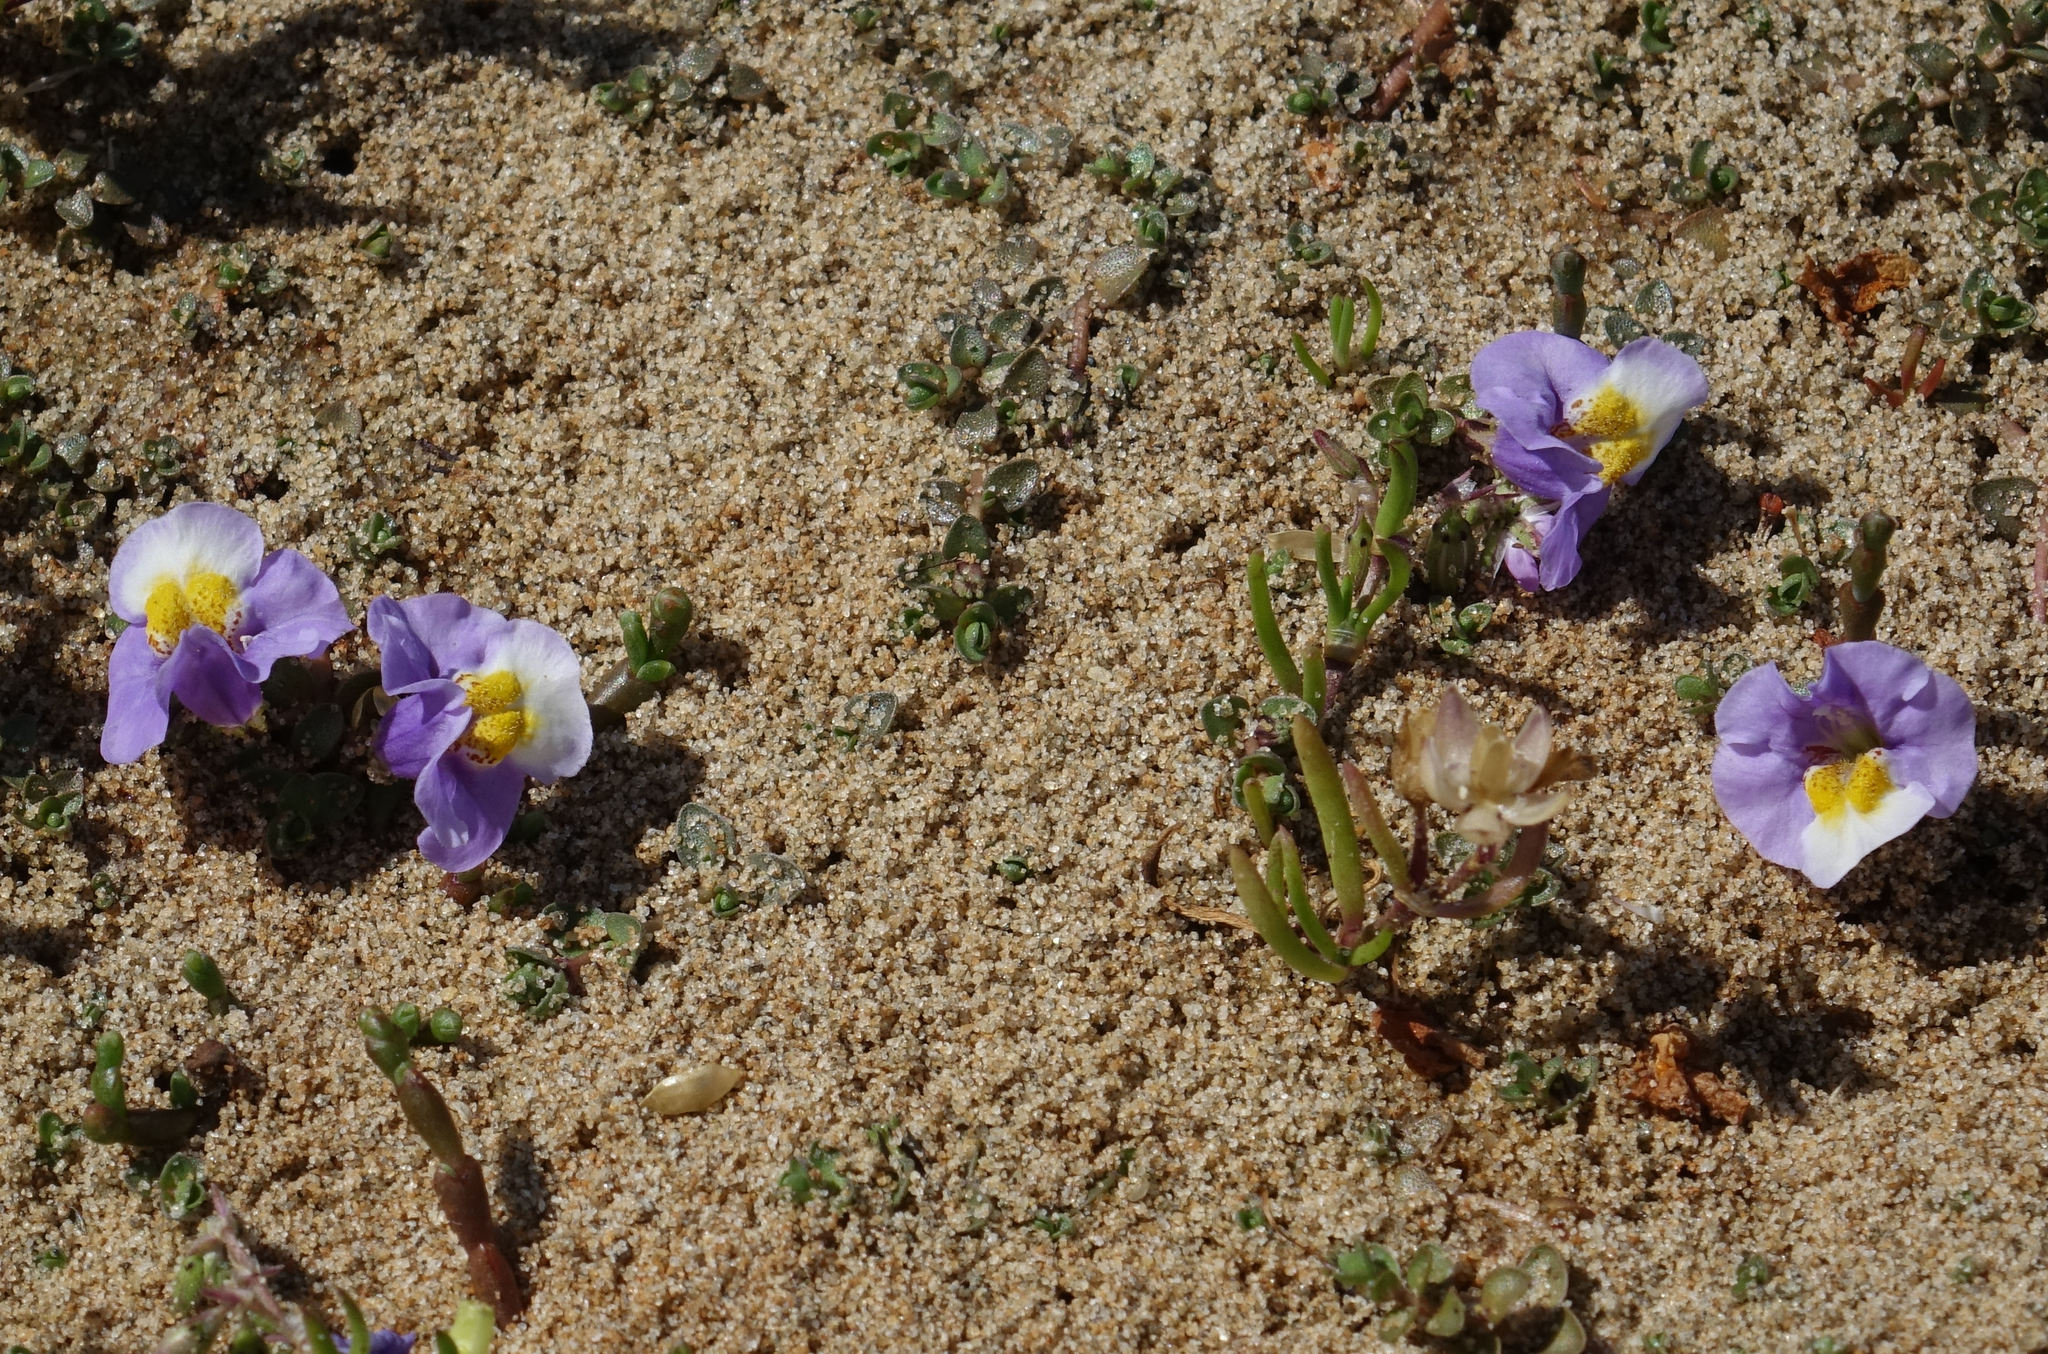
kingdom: Plantae
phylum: Tracheophyta
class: Magnoliopsida
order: Lamiales
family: Phrymaceae
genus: Thyridia
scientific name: Thyridia repens
